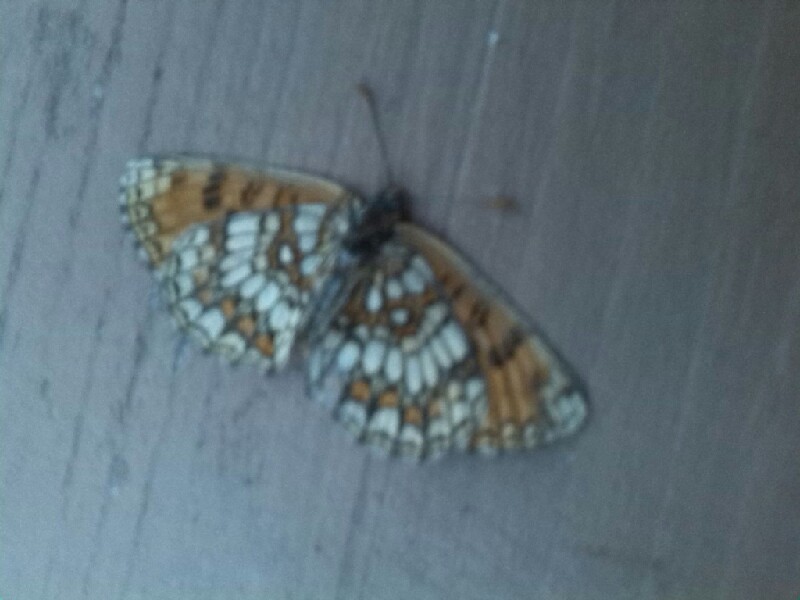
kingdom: Animalia
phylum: Arthropoda
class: Insecta
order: Lepidoptera
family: Nymphalidae
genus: Melitaea
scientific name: Melitaea athalia
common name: Heath fritillary
